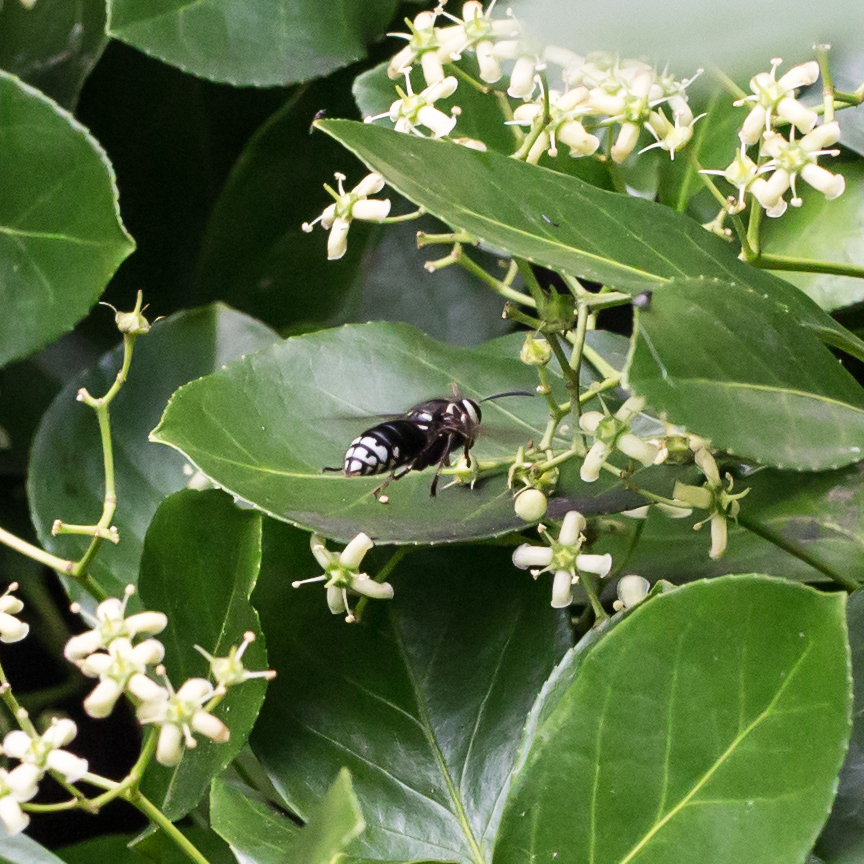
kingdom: Animalia
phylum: Arthropoda
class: Insecta
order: Hymenoptera
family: Vespidae
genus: Dolichovespula
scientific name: Dolichovespula maculata
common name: Bald-faced hornet
